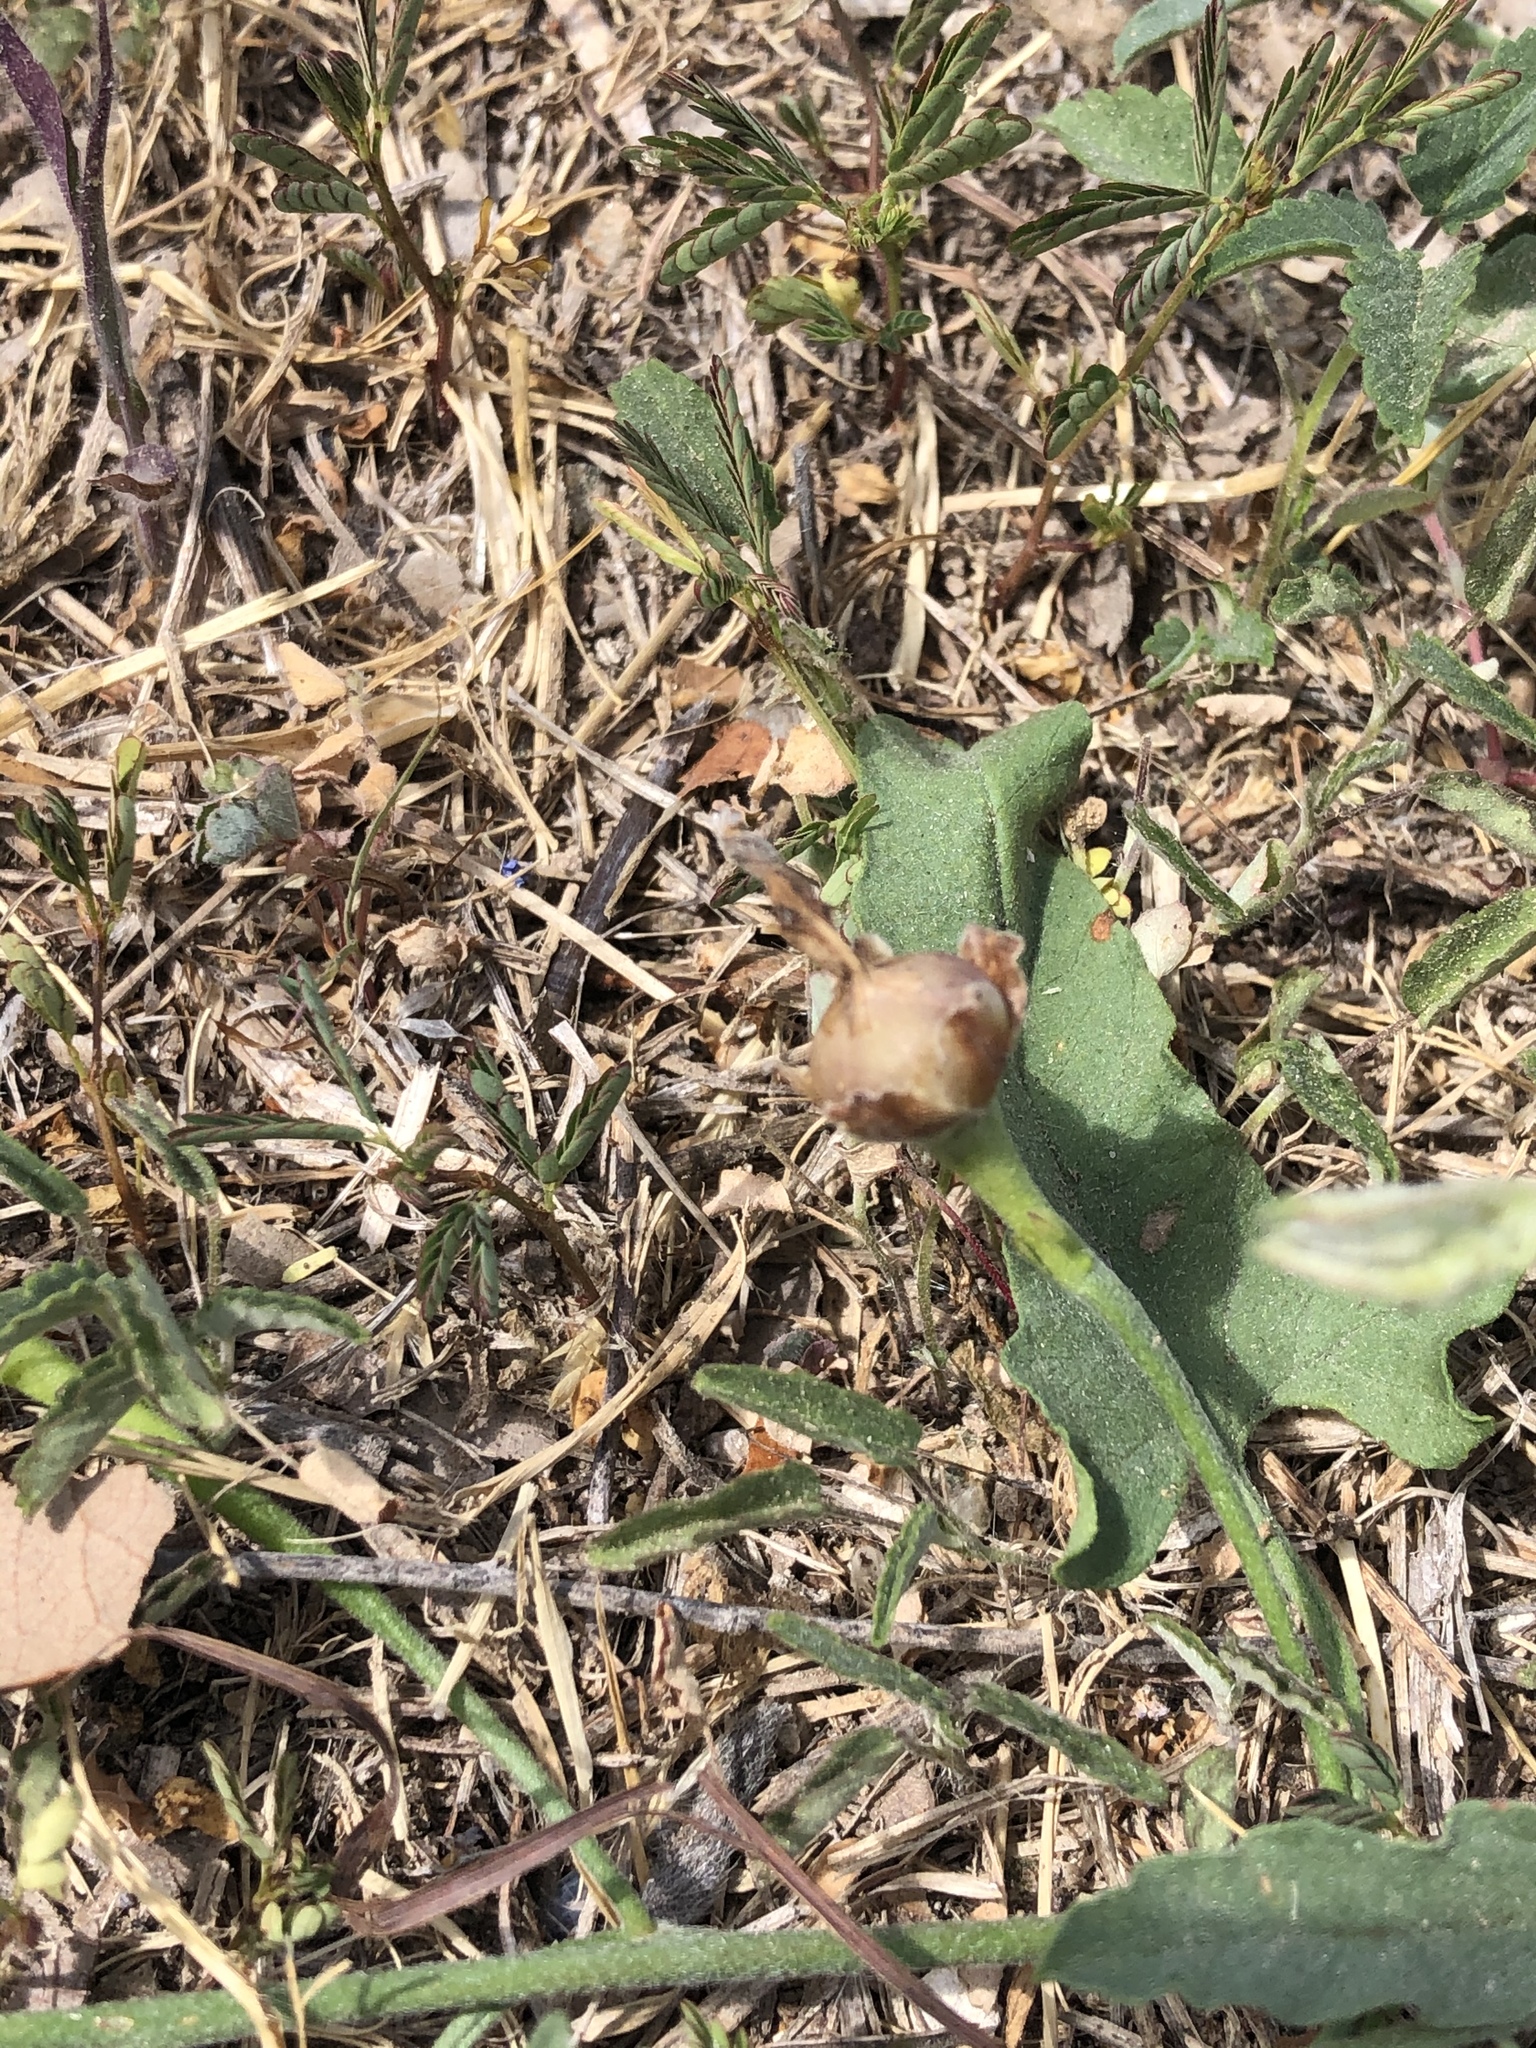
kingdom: Plantae
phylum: Tracheophyta
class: Magnoliopsida
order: Solanales
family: Convolvulaceae
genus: Convolvulus
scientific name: Convolvulus equitans
